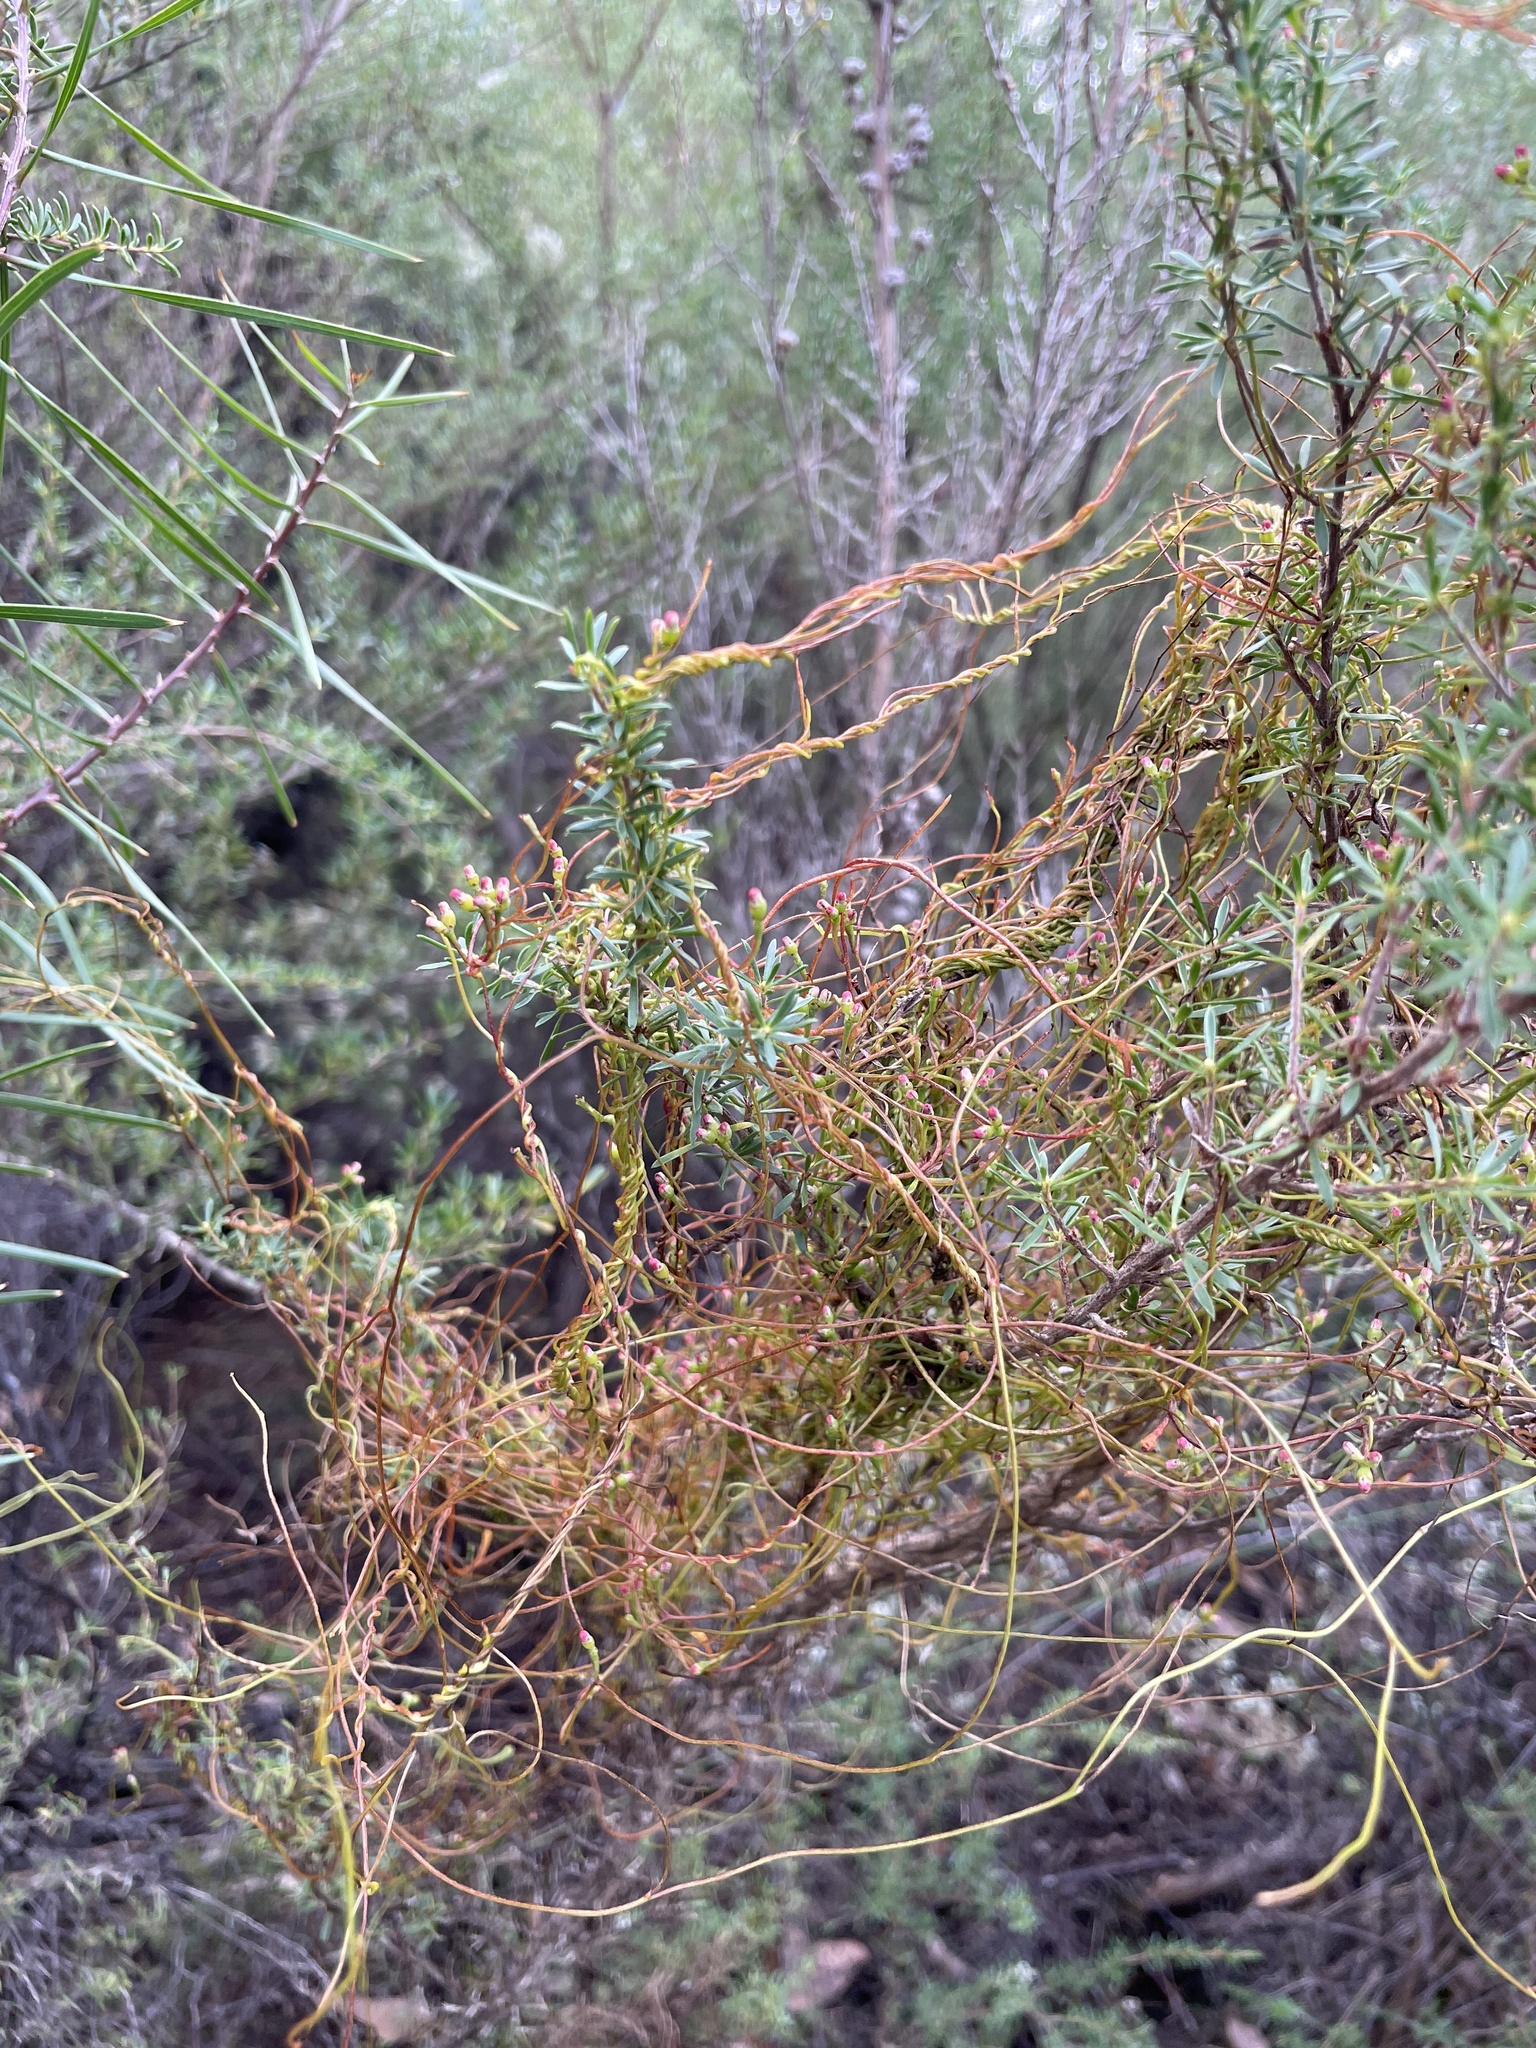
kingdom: Plantae
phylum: Tracheophyta
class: Magnoliopsida
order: Laurales
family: Lauraceae
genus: Cassytha
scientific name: Cassytha glabella
